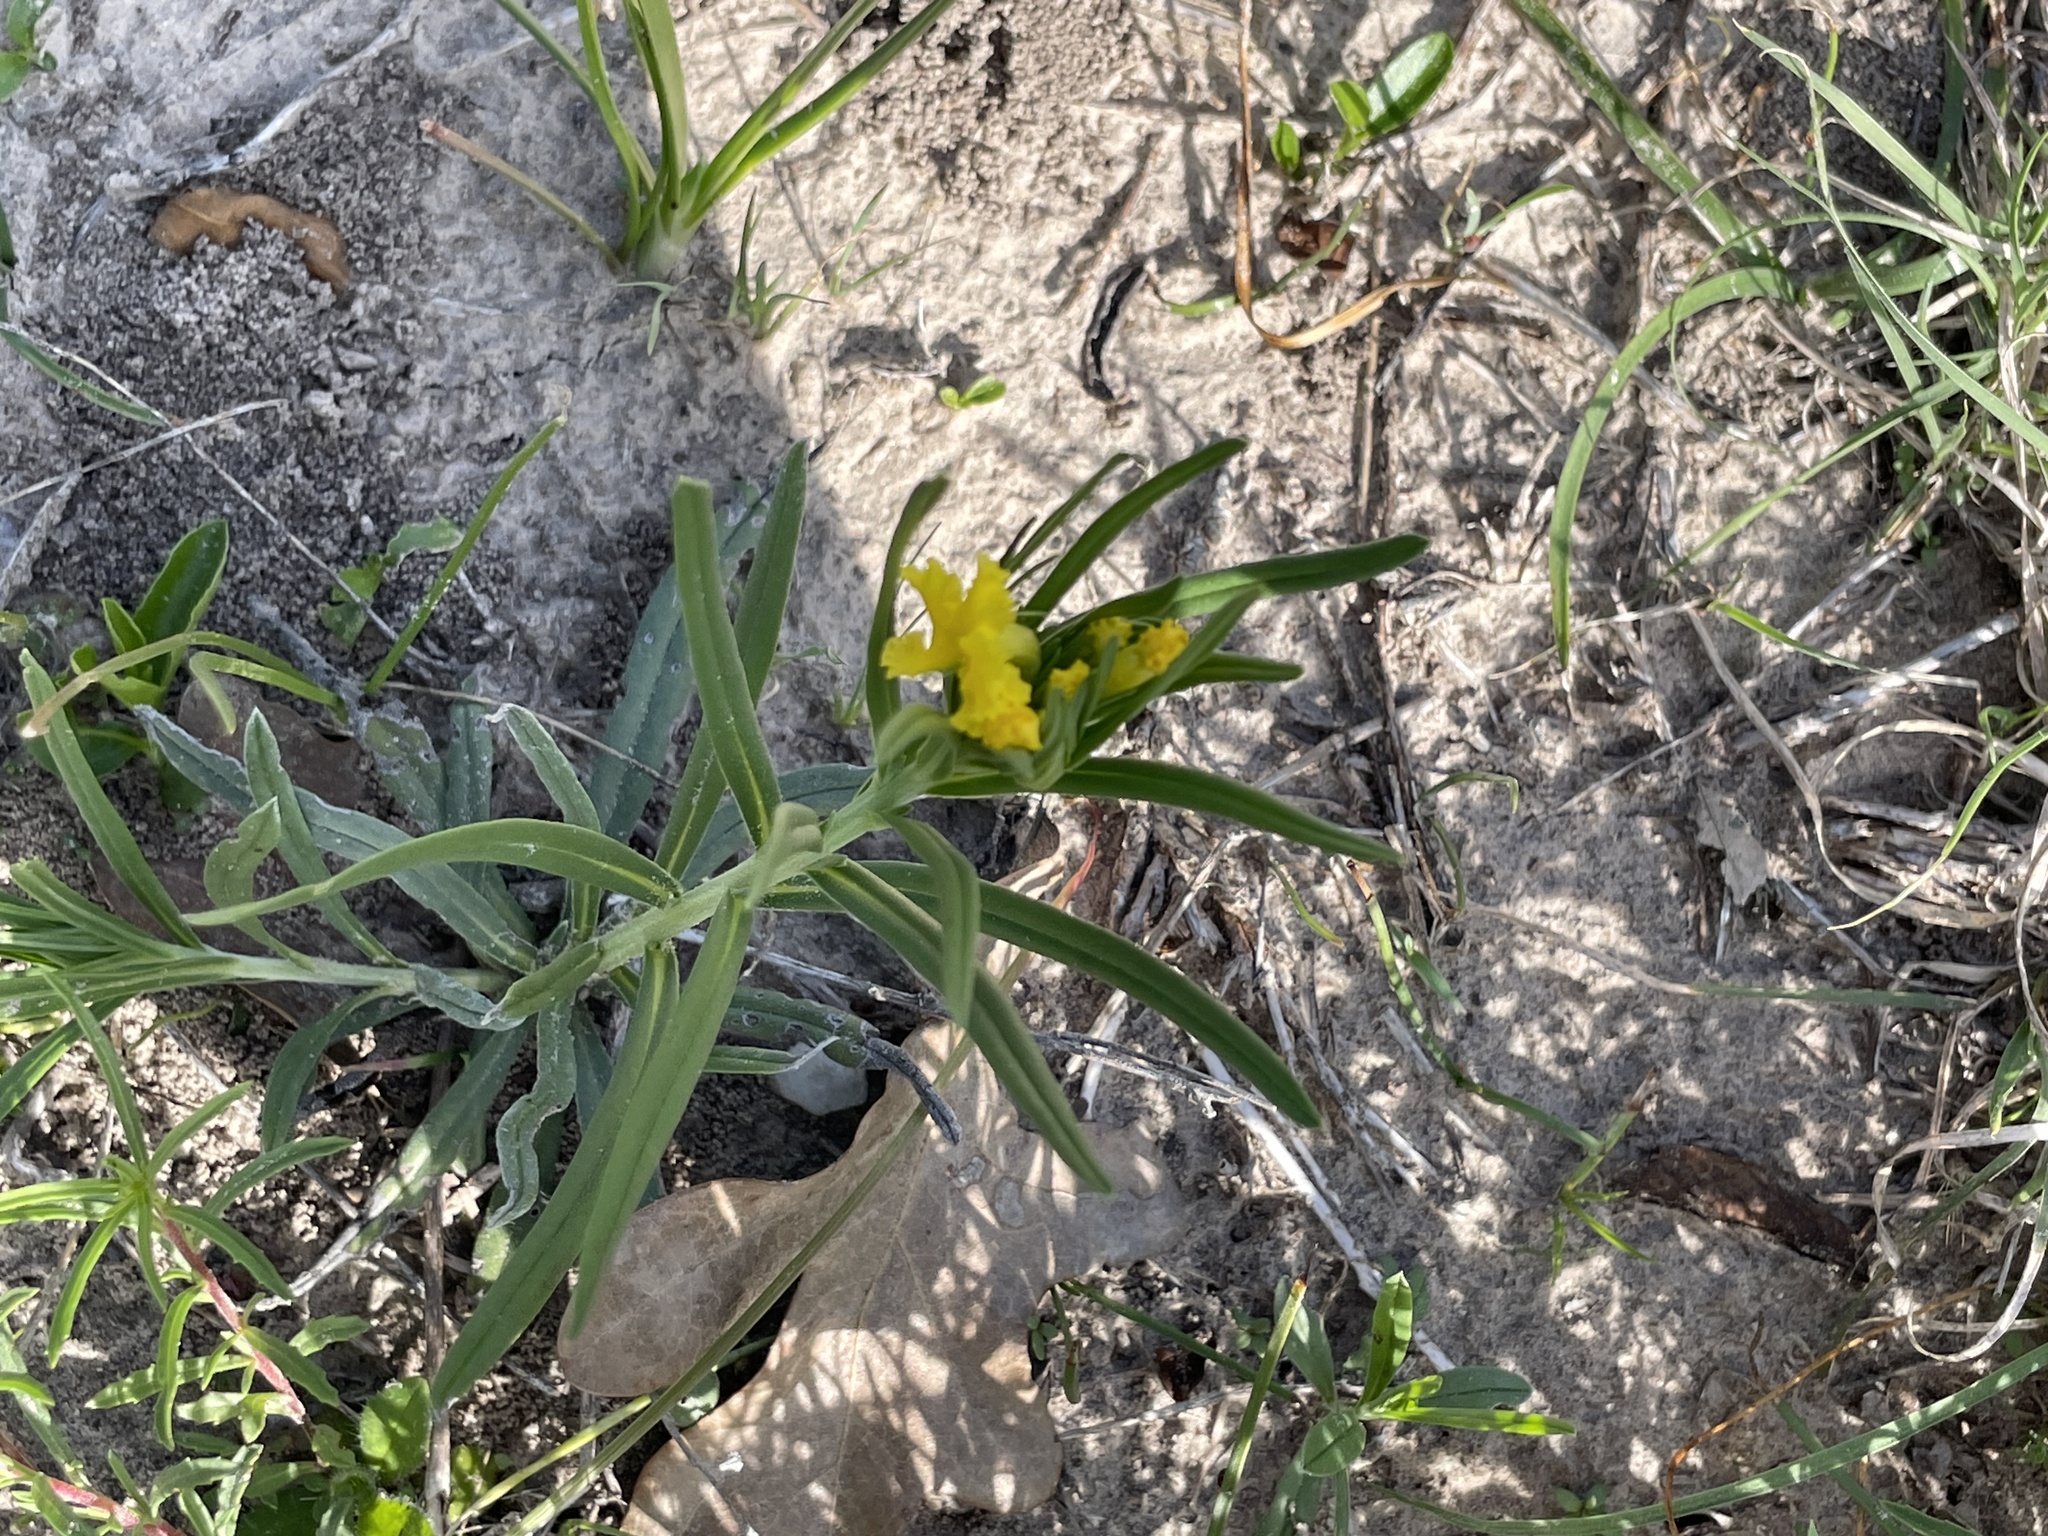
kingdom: Plantae
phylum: Tracheophyta
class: Magnoliopsida
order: Boraginales
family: Boraginaceae
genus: Lithospermum
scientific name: Lithospermum incisum
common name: Fringed gromwell
